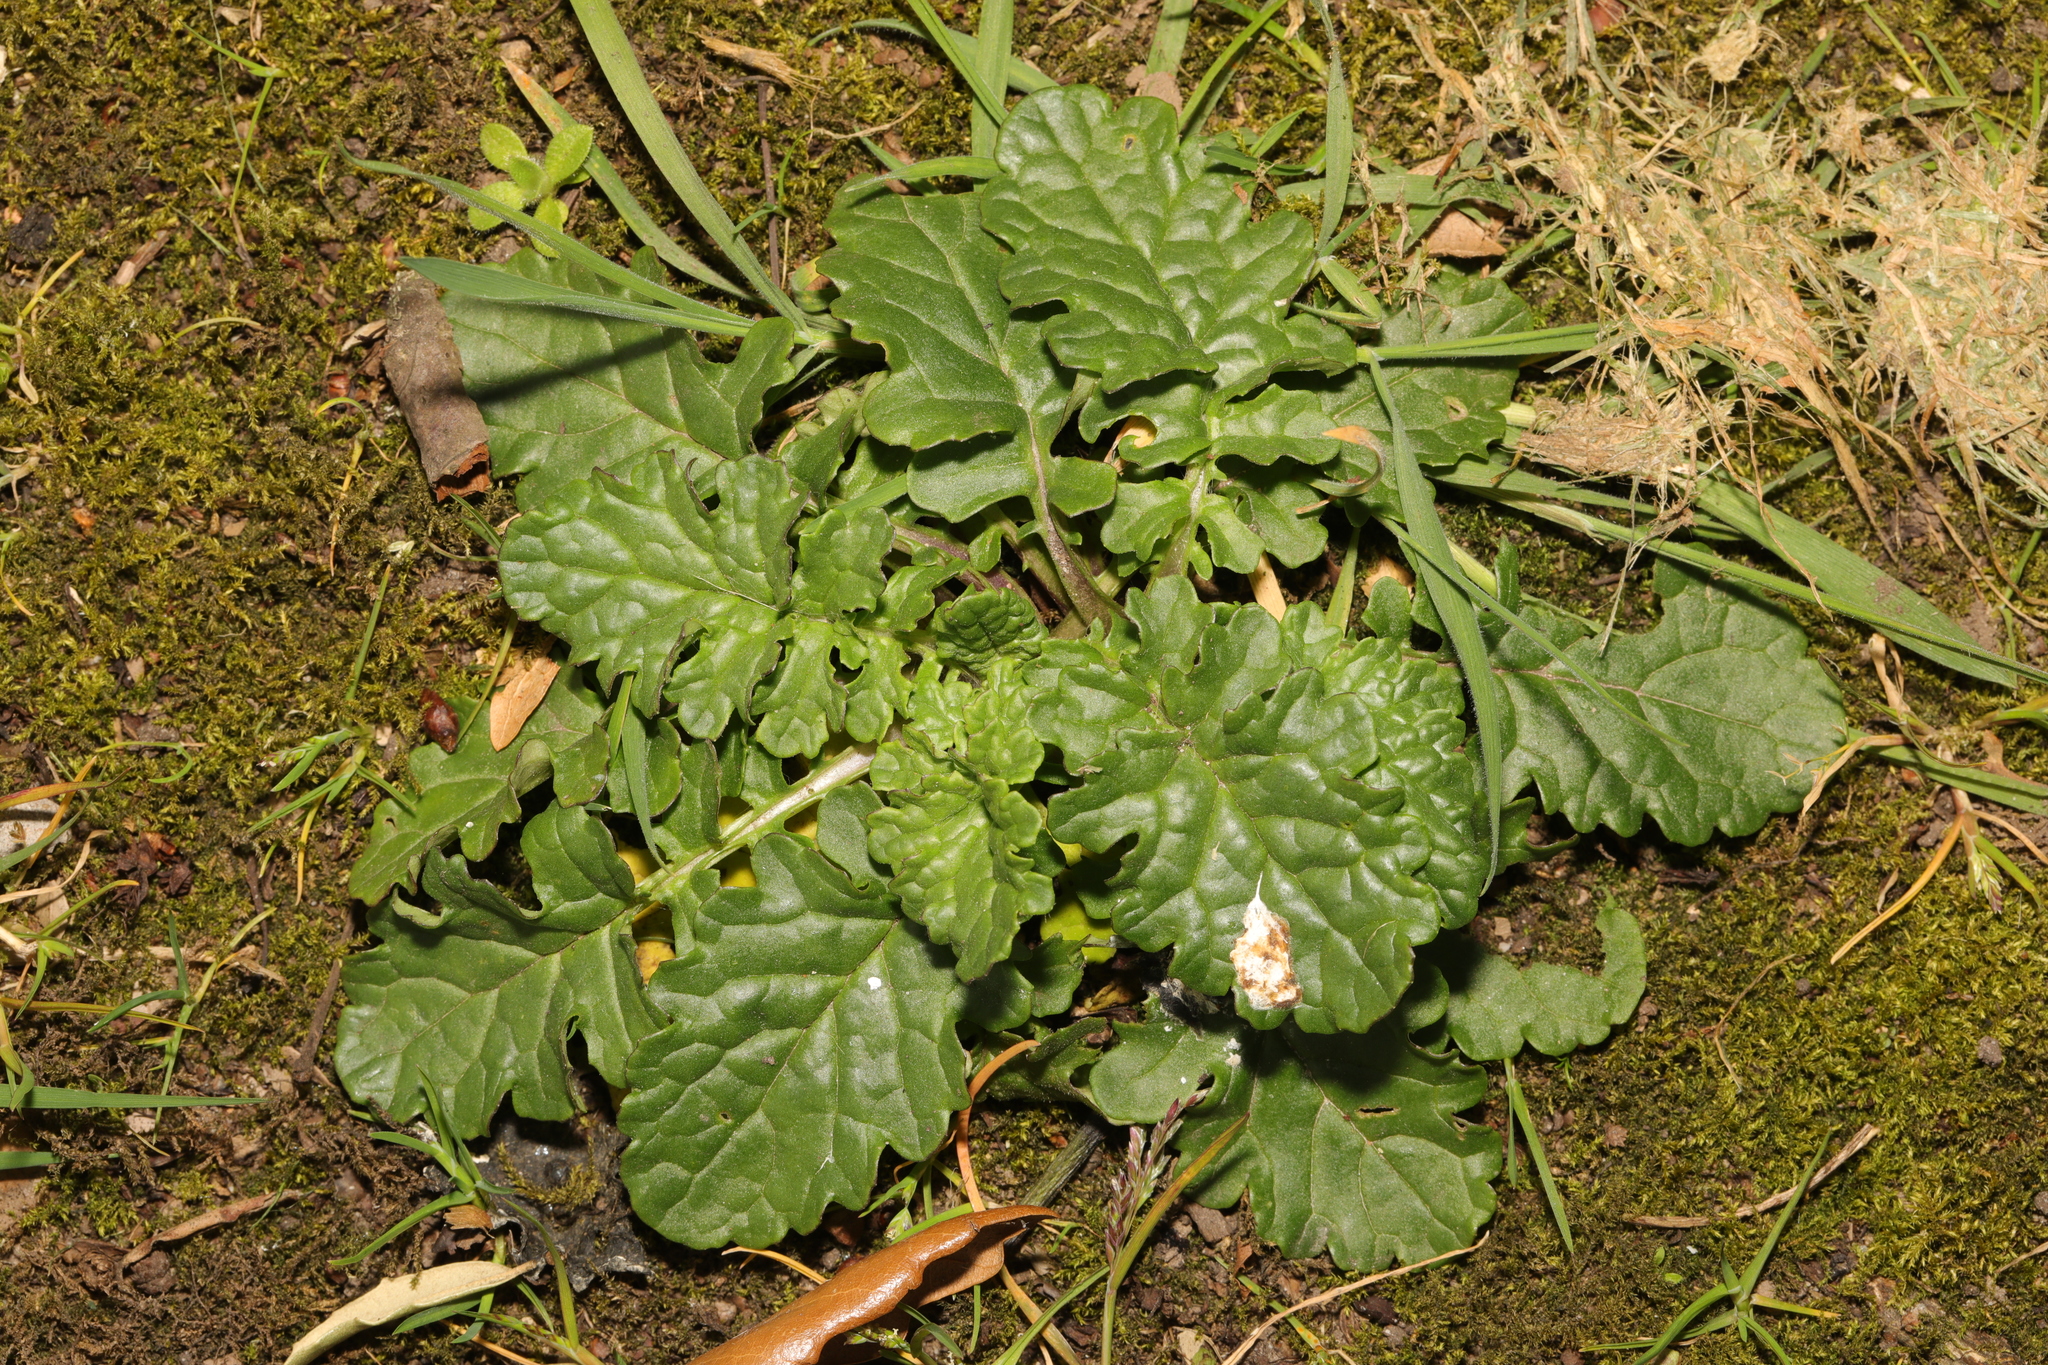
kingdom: Plantae
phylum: Tracheophyta
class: Magnoliopsida
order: Asterales
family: Asteraceae
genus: Jacobaea
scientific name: Jacobaea vulgaris
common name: Stinking willie
